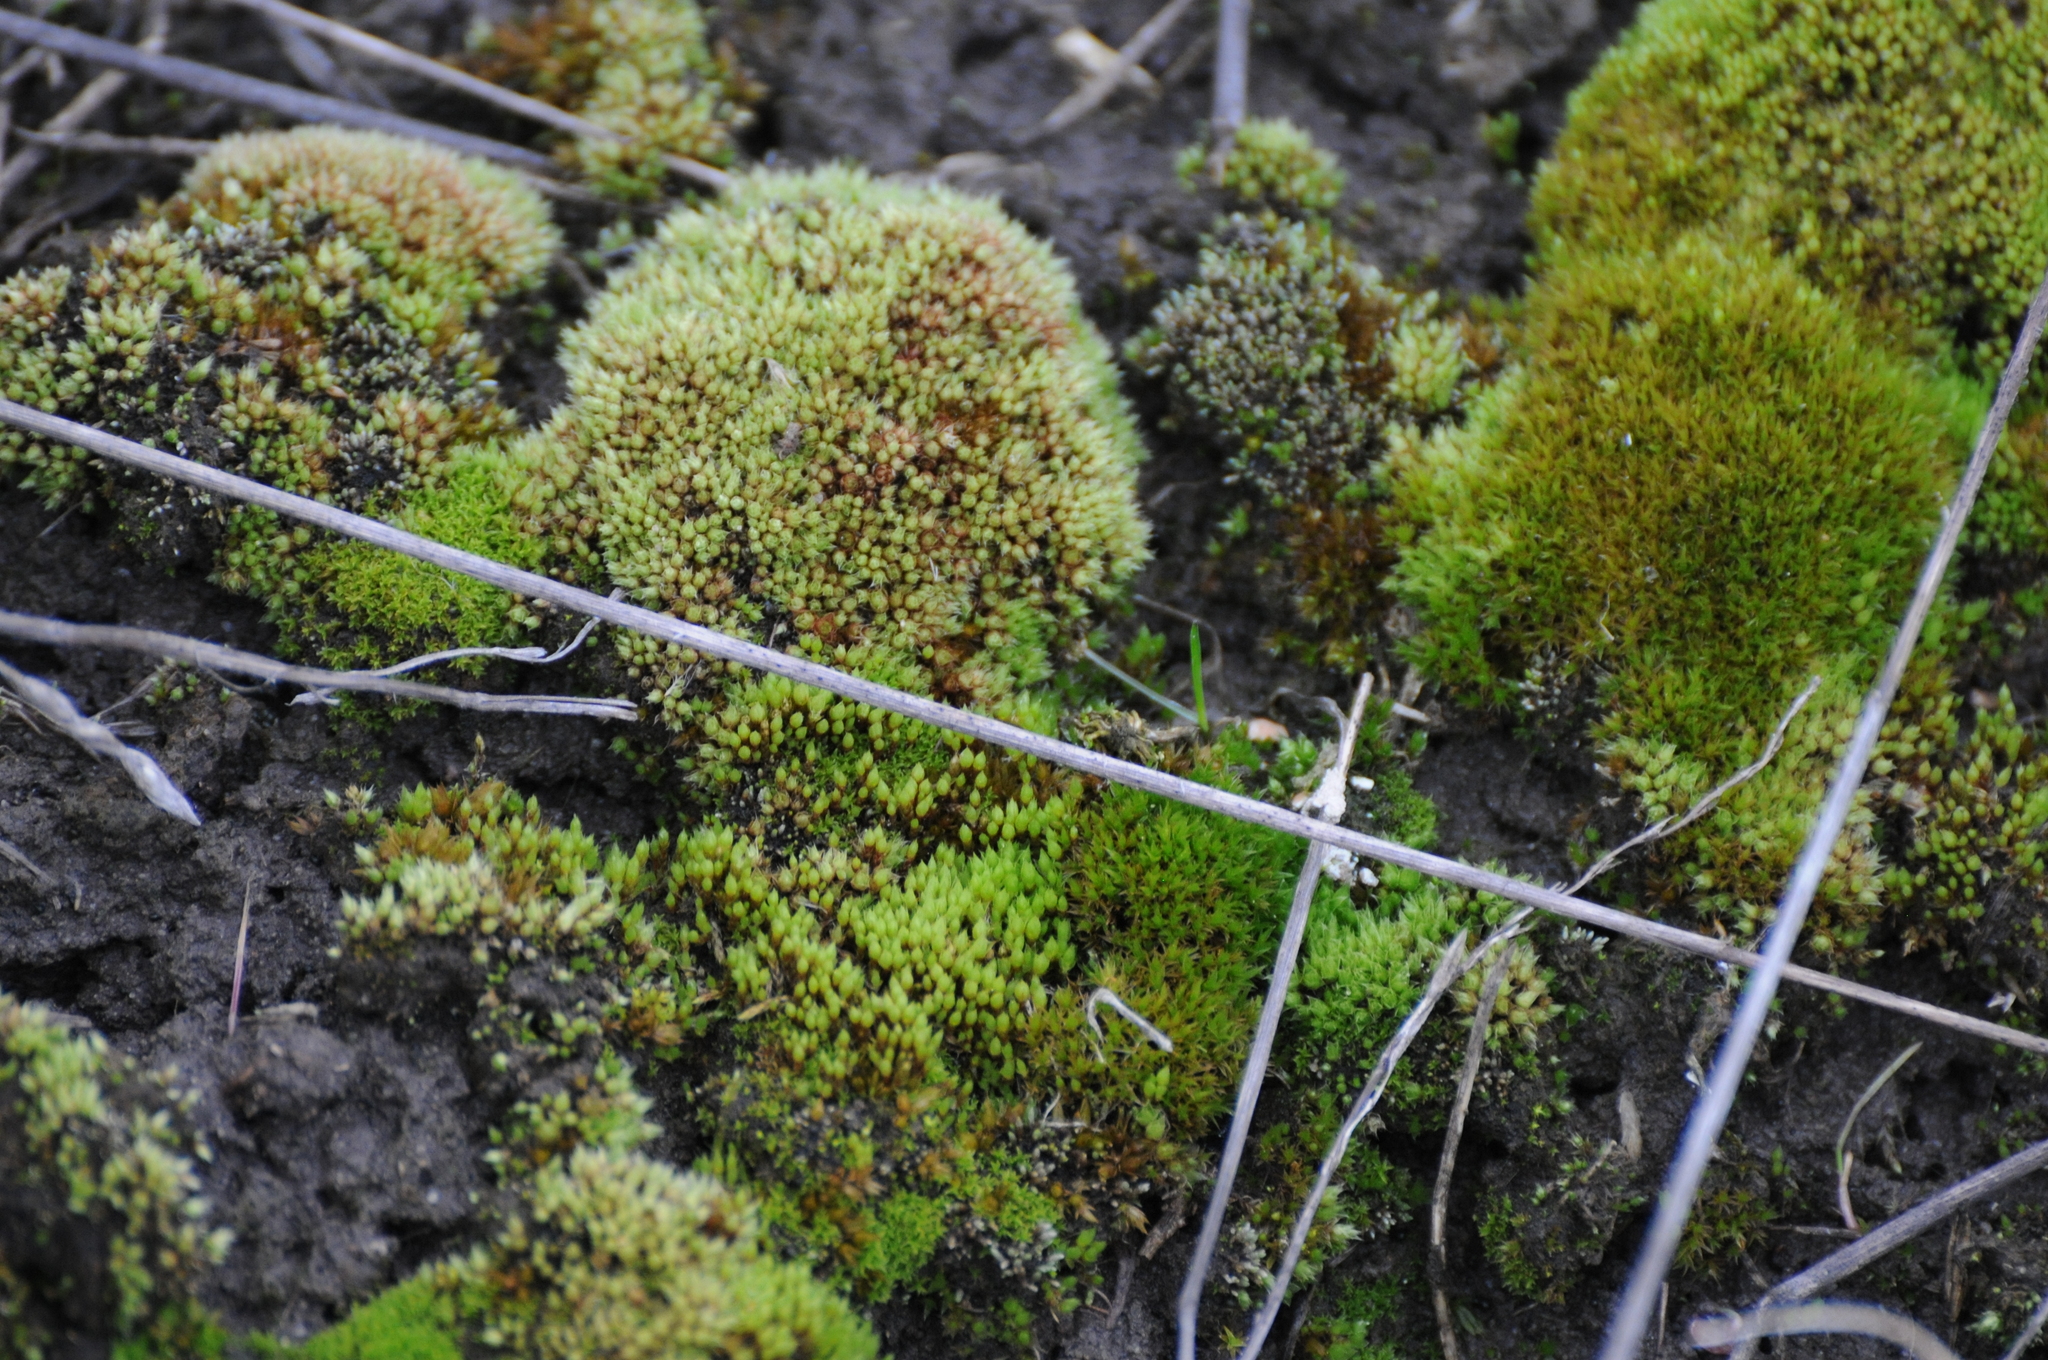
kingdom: Plantae
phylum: Bryophyta
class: Bryopsida
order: Bryales
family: Bryaceae
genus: Bryum
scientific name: Bryum argenteum
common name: Silver-moss
